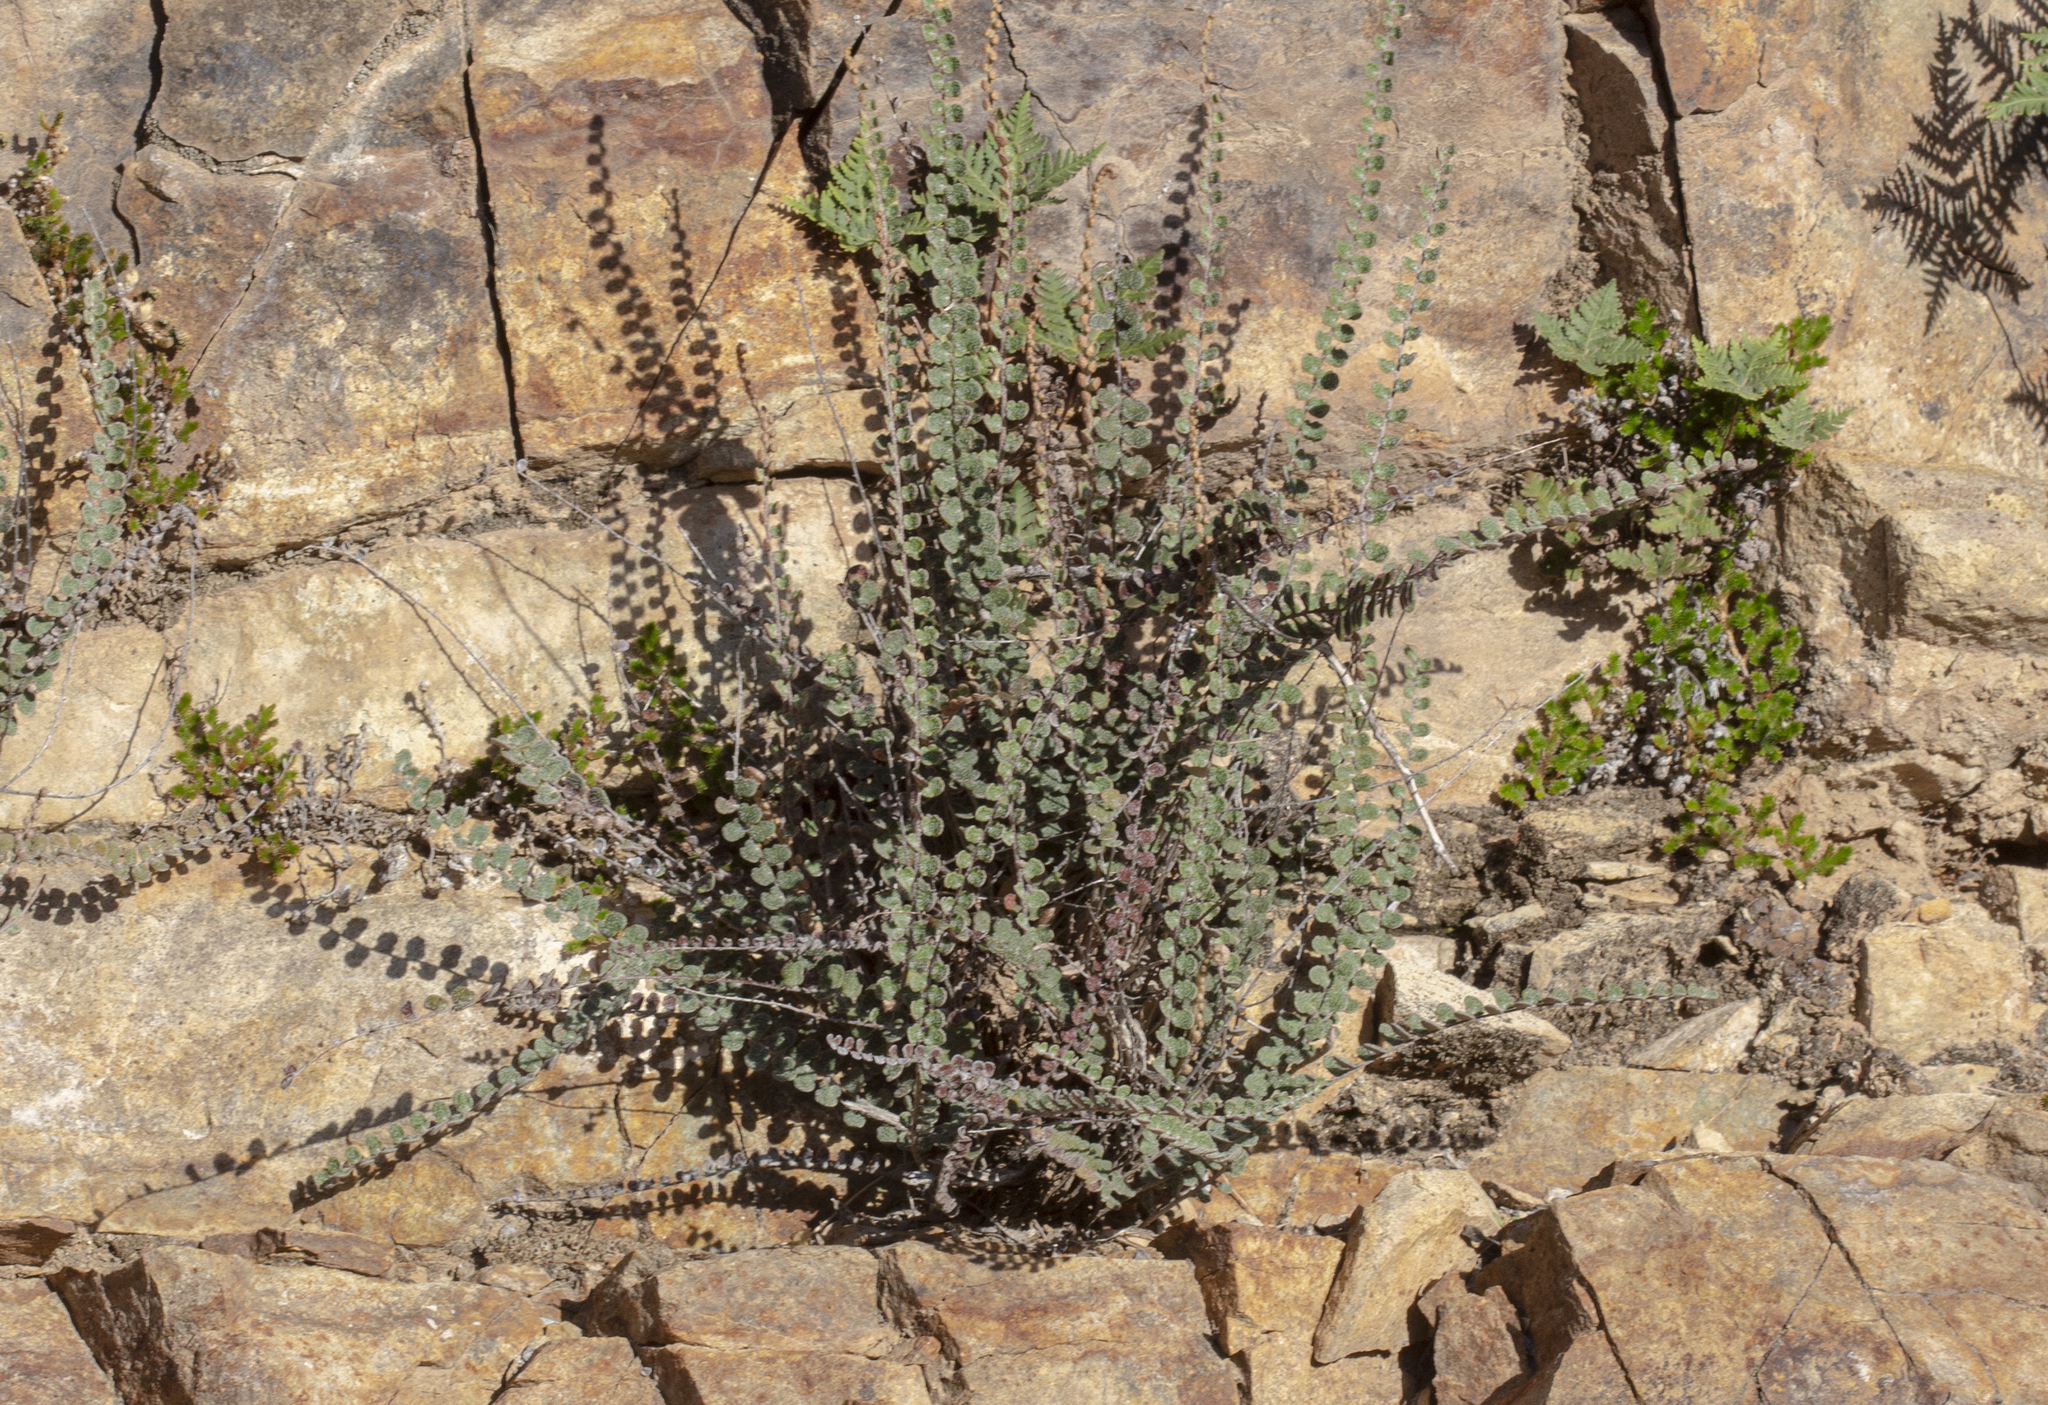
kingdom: Plantae
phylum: Tracheophyta
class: Polypodiopsida
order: Polypodiales
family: Pteridaceae
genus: Astrolepis
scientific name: Astrolepis cochisensis
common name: Scaly cloak fern
